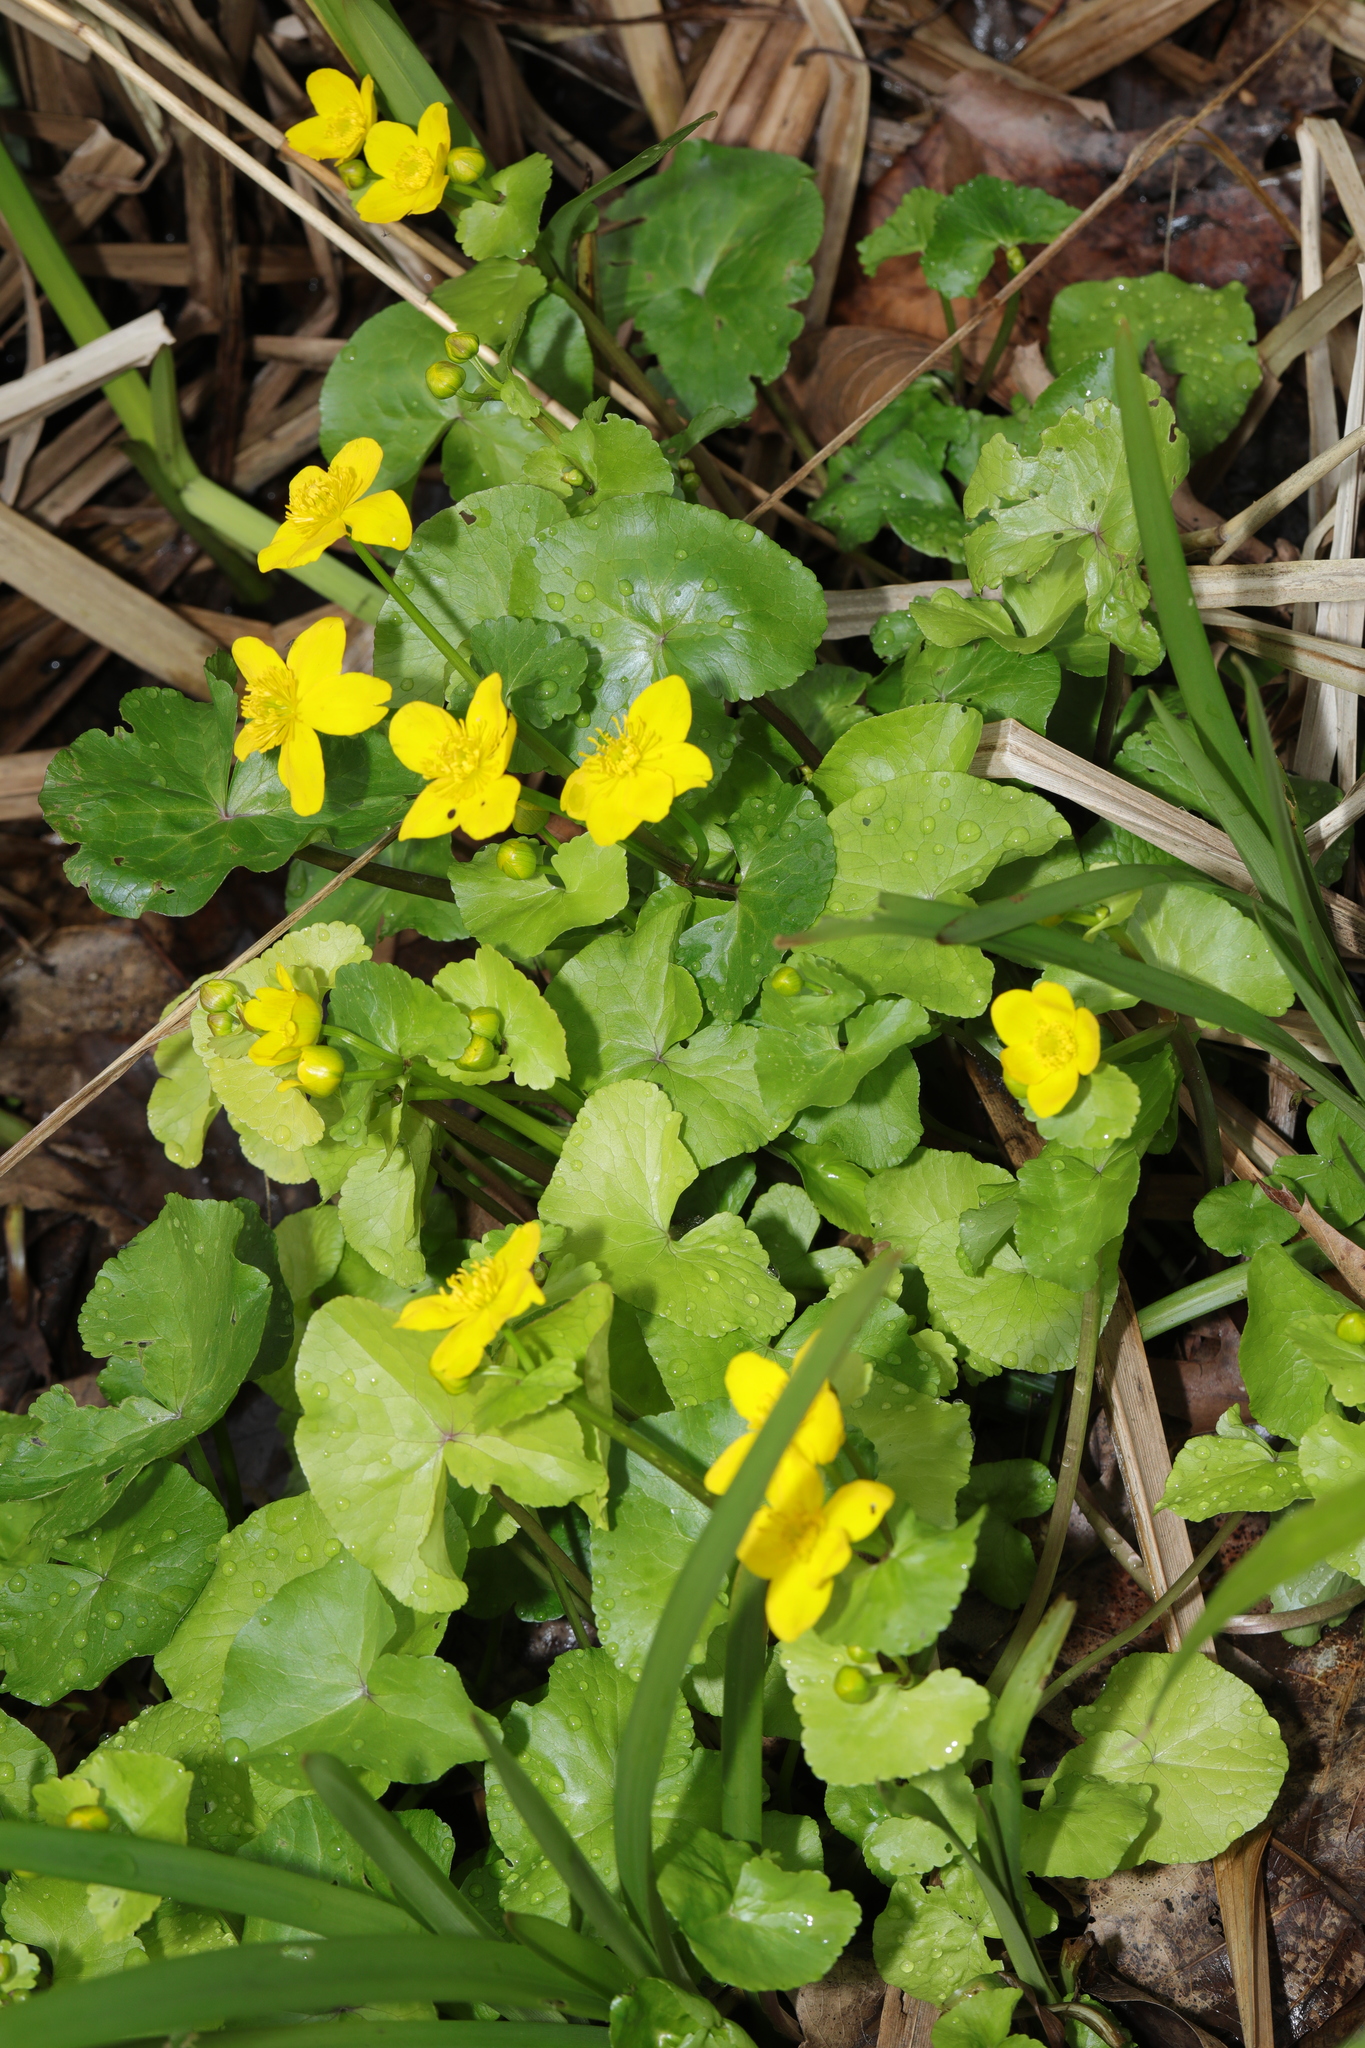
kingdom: Plantae
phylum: Tracheophyta
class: Magnoliopsida
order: Ranunculales
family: Ranunculaceae
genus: Caltha
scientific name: Caltha palustris
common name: Marsh marigold
